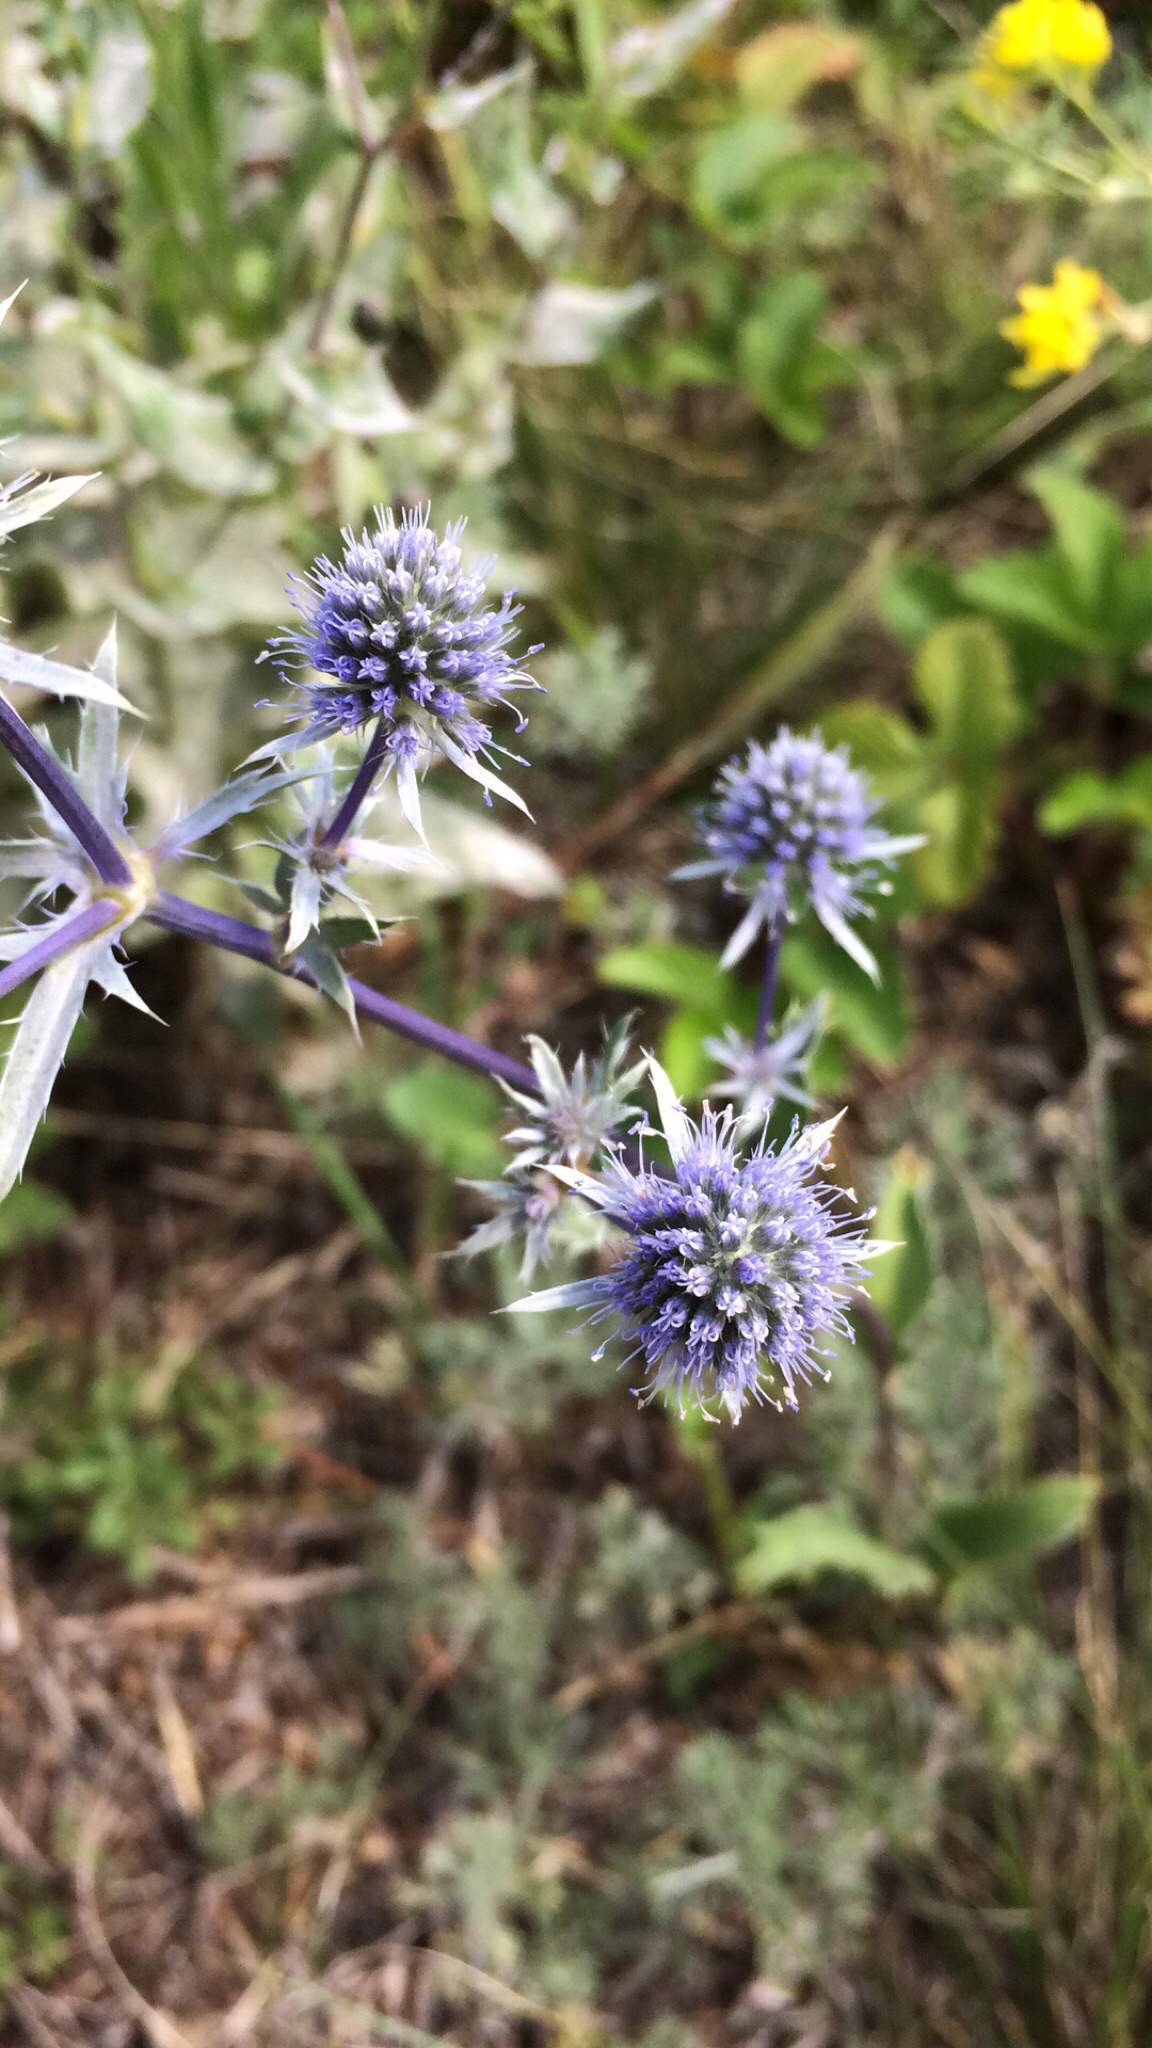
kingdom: Plantae
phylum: Tracheophyta
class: Magnoliopsida
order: Apiales
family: Apiaceae
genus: Eryngium
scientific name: Eryngium planum
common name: Blue eryngo
